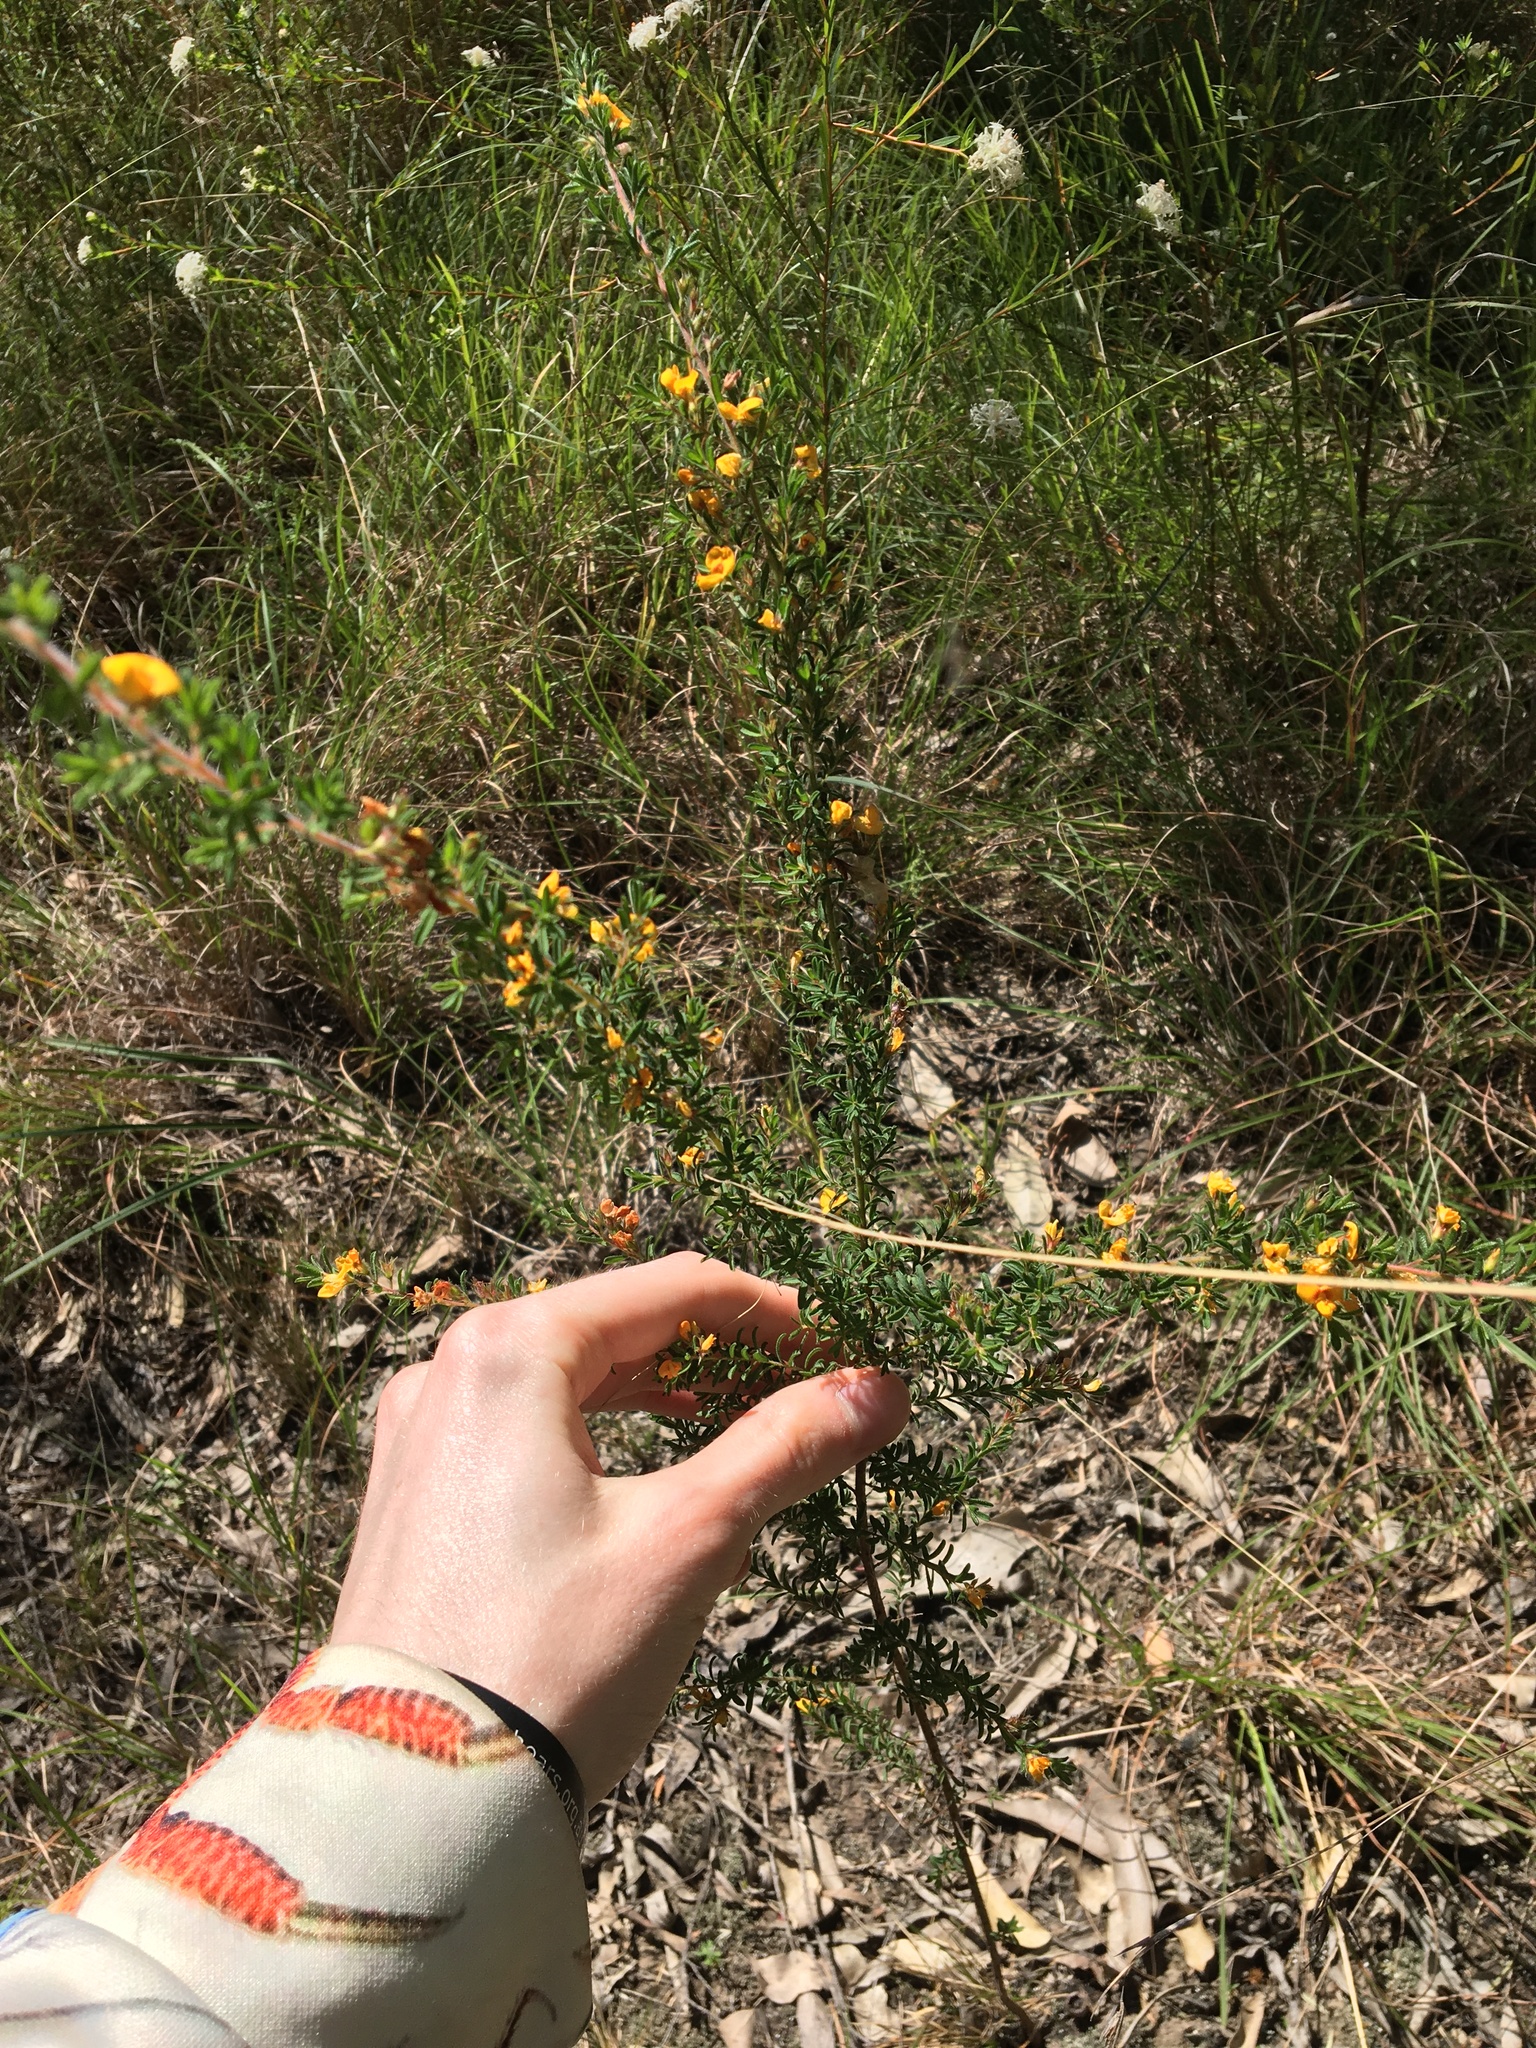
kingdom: Plantae
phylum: Tracheophyta
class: Magnoliopsida
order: Fabales
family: Fabaceae
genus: Pultenaea
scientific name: Pultenaea villosa
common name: Bronze bush-pea
